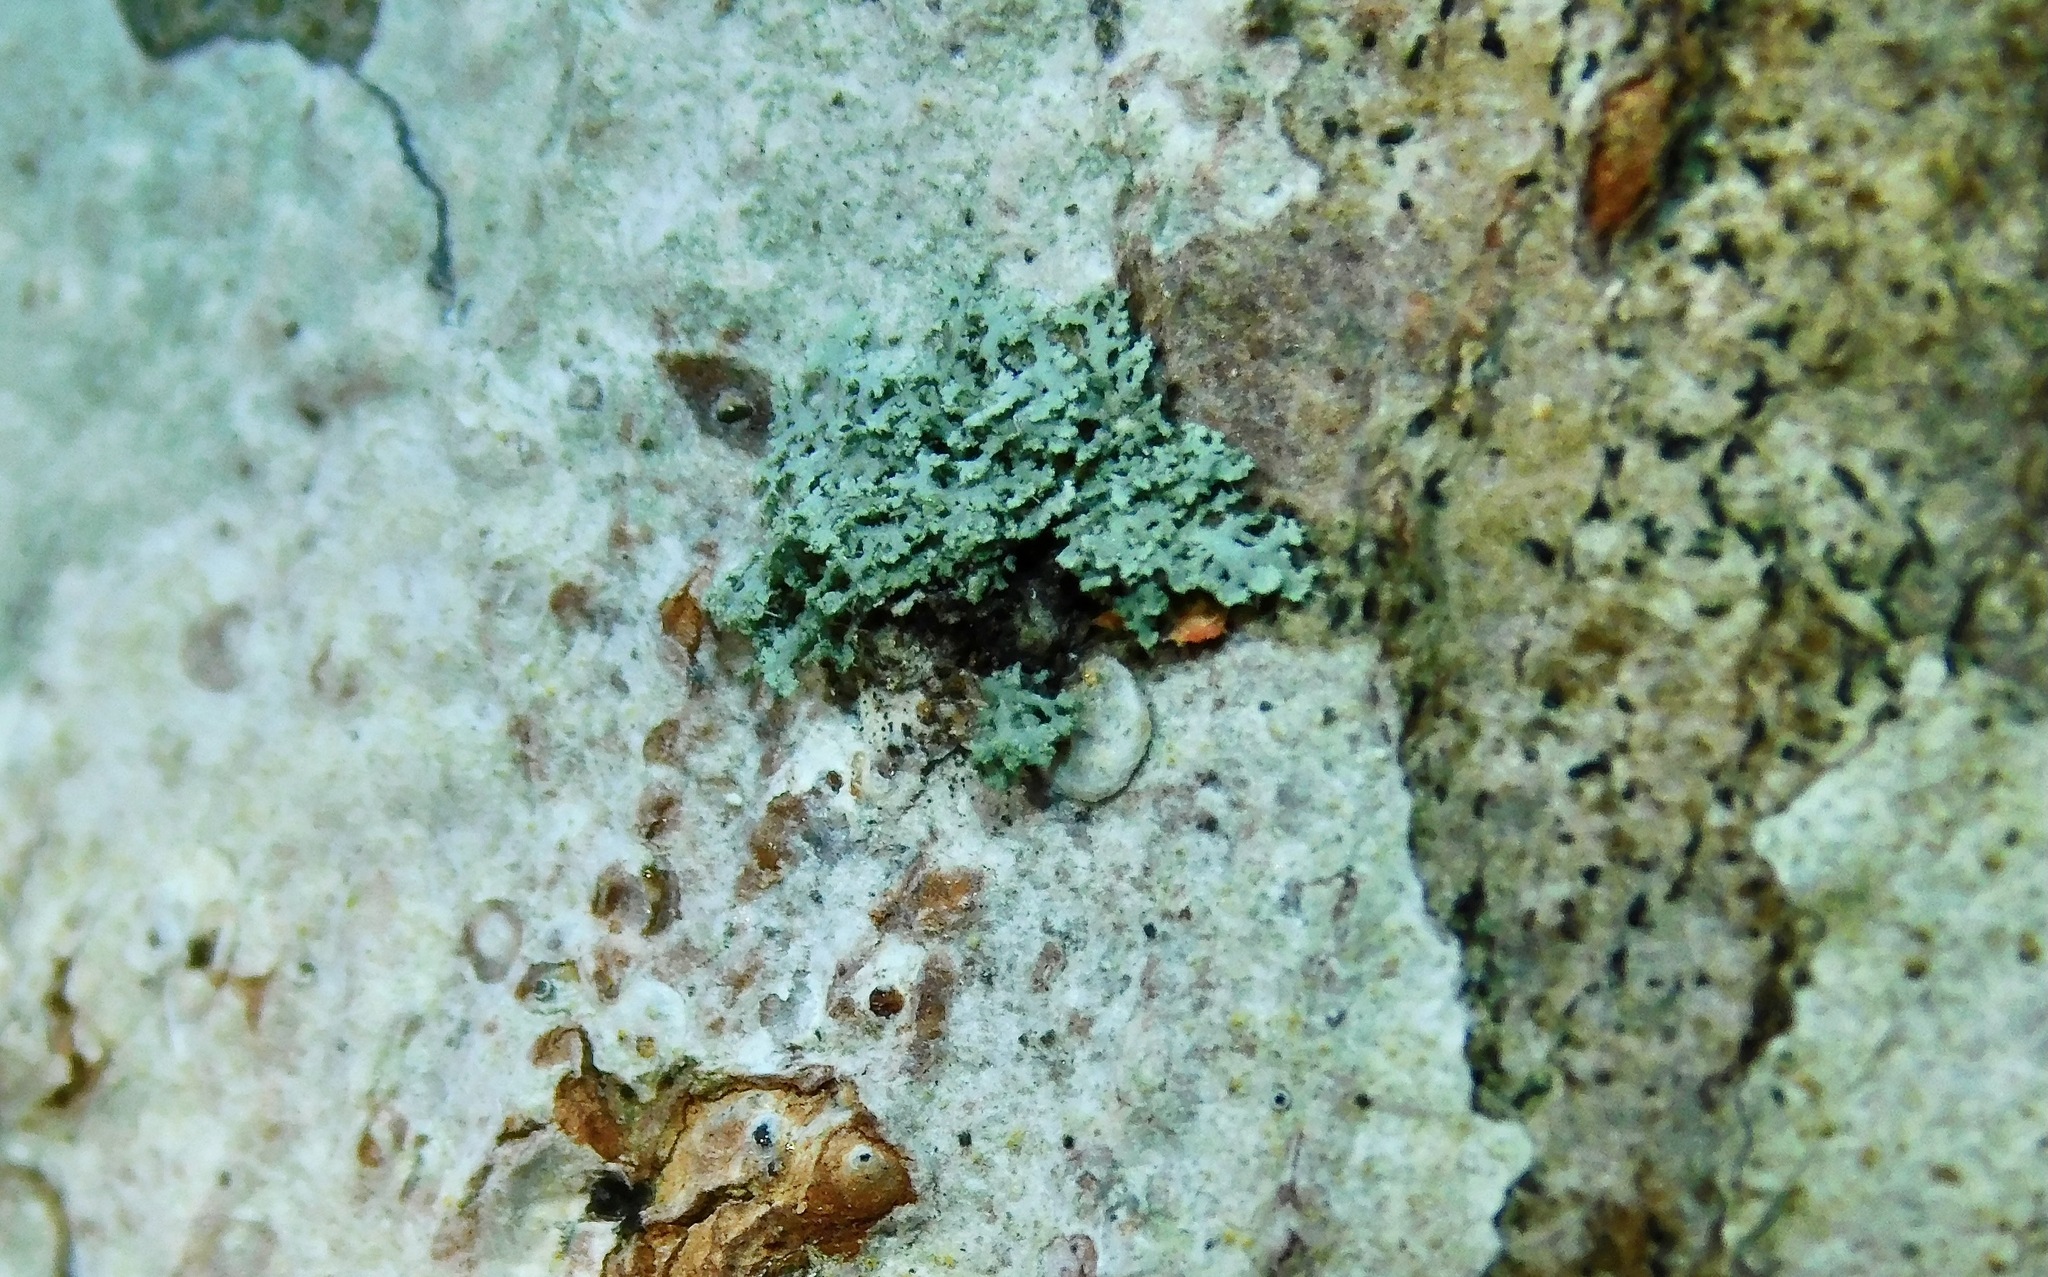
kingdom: Fungi
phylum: Ascomycota
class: Lecanoromycetes
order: Caliciales
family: Physciaceae
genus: Physcia
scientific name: Physcia millegrana
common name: Rosette lichen
